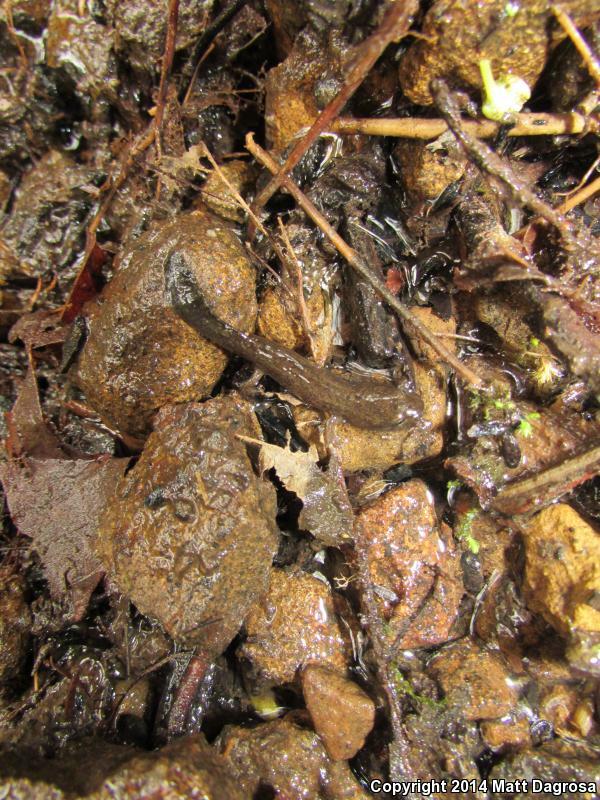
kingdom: Animalia
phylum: Chordata
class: Amphibia
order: Caudata
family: Ambystomatidae
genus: Dicamptodon
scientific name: Dicamptodon tenebrosus
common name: Coastal giant salamander
